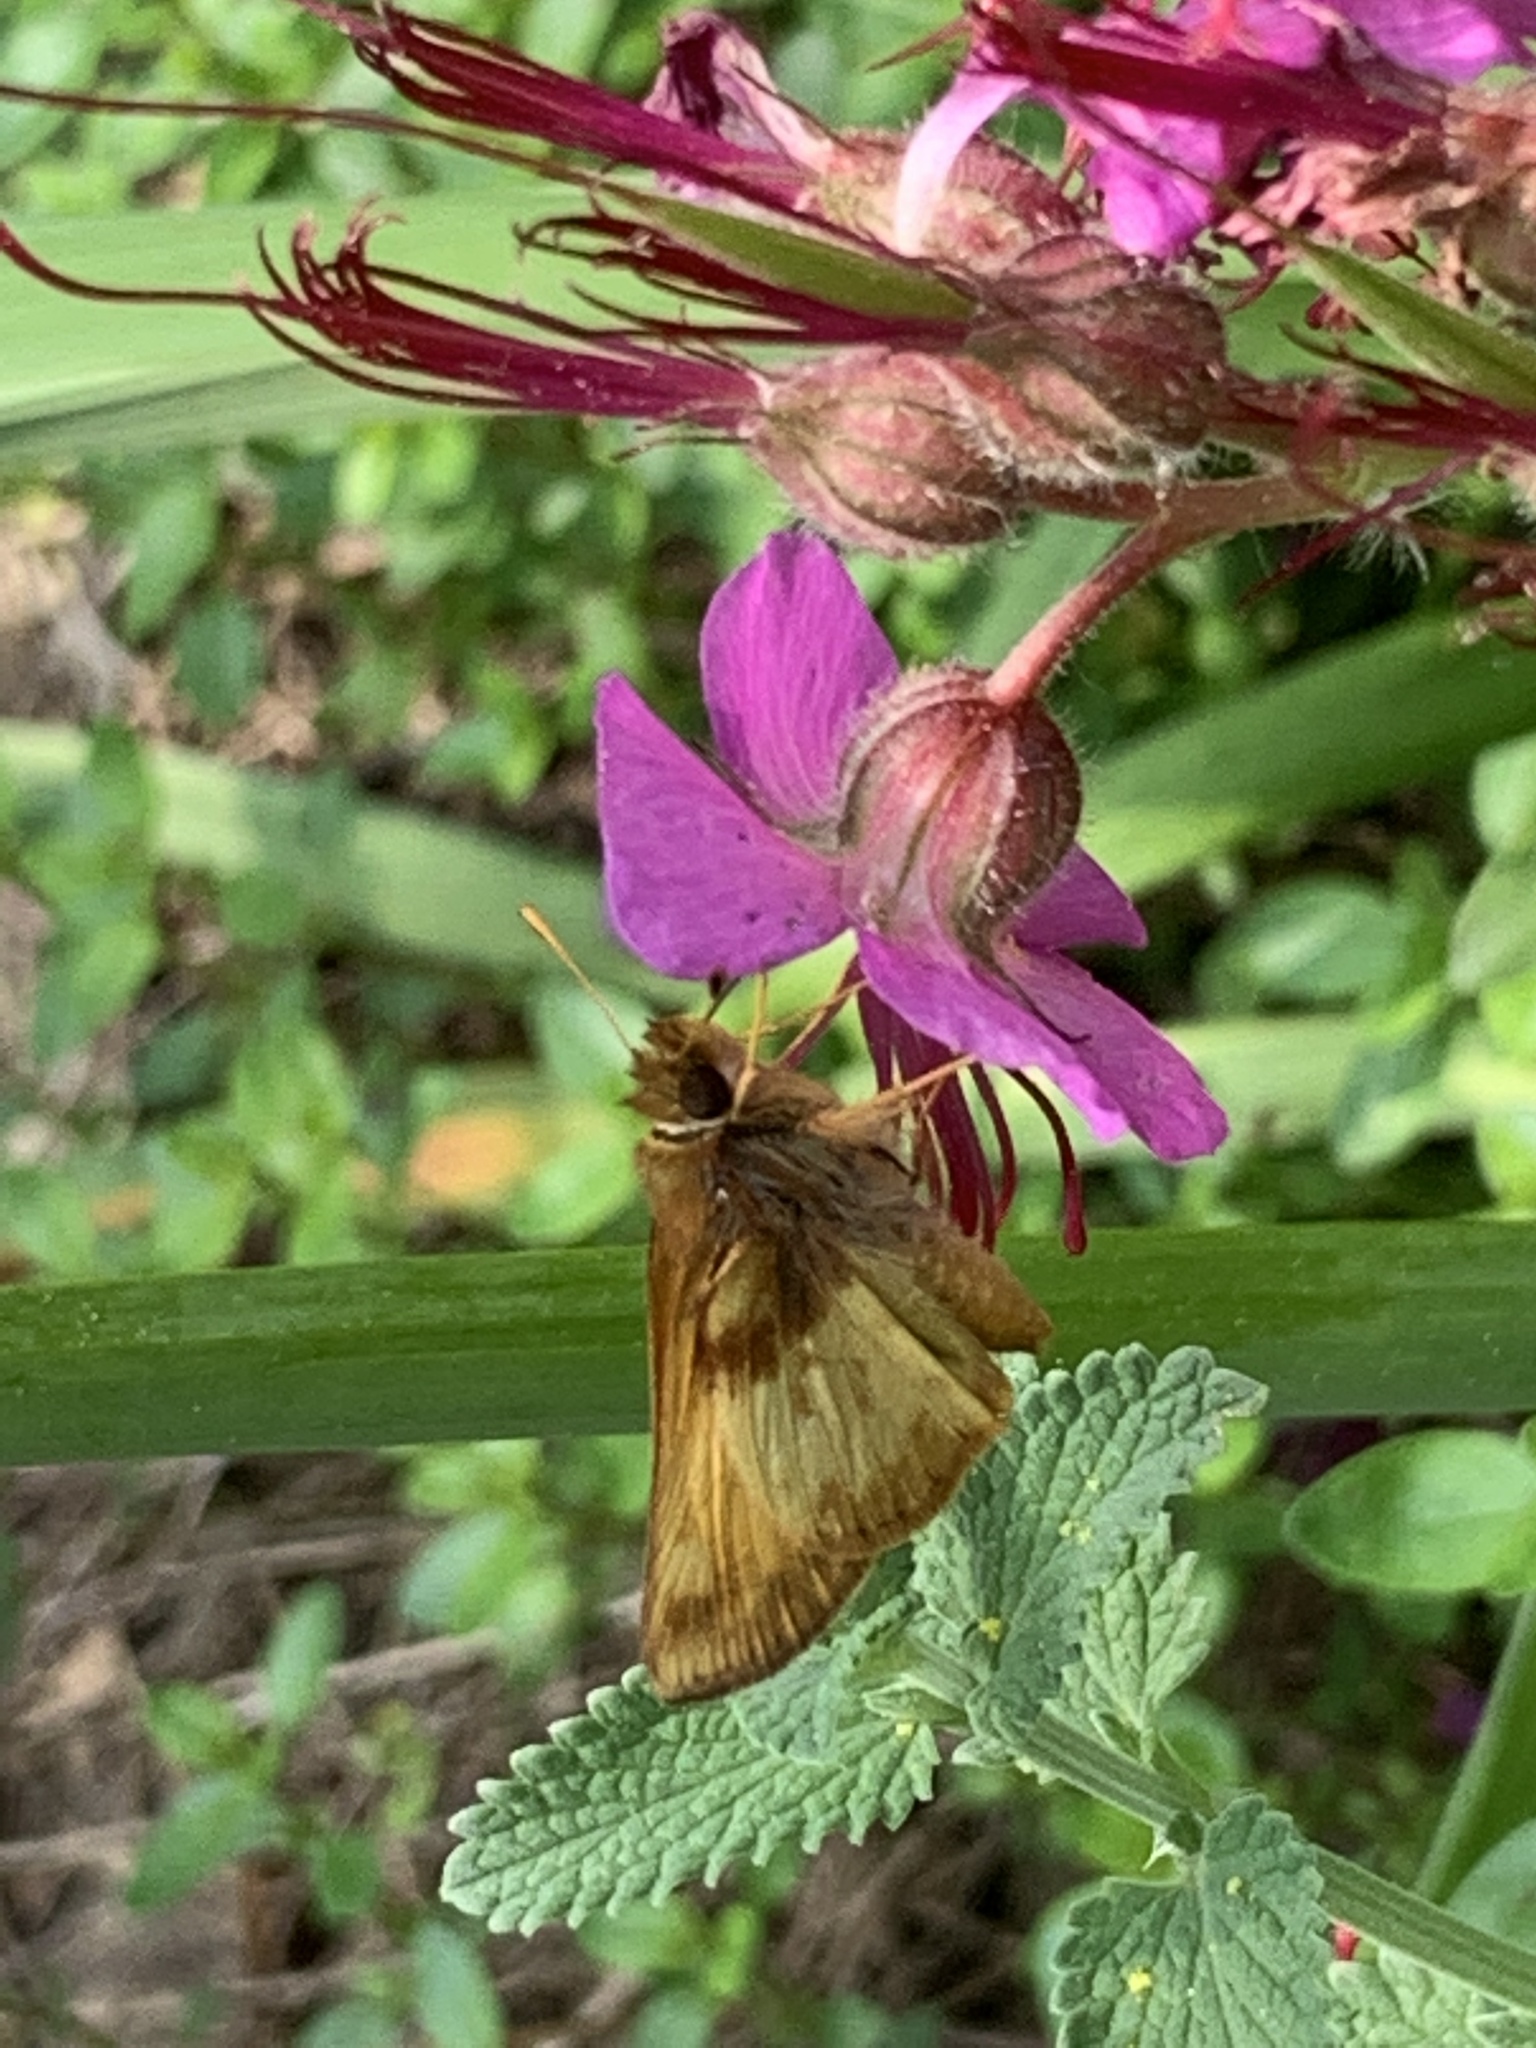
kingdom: Animalia
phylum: Arthropoda
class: Insecta
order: Lepidoptera
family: Hesperiidae
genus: Lon
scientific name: Lon zabulon
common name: Zabulon skipper
